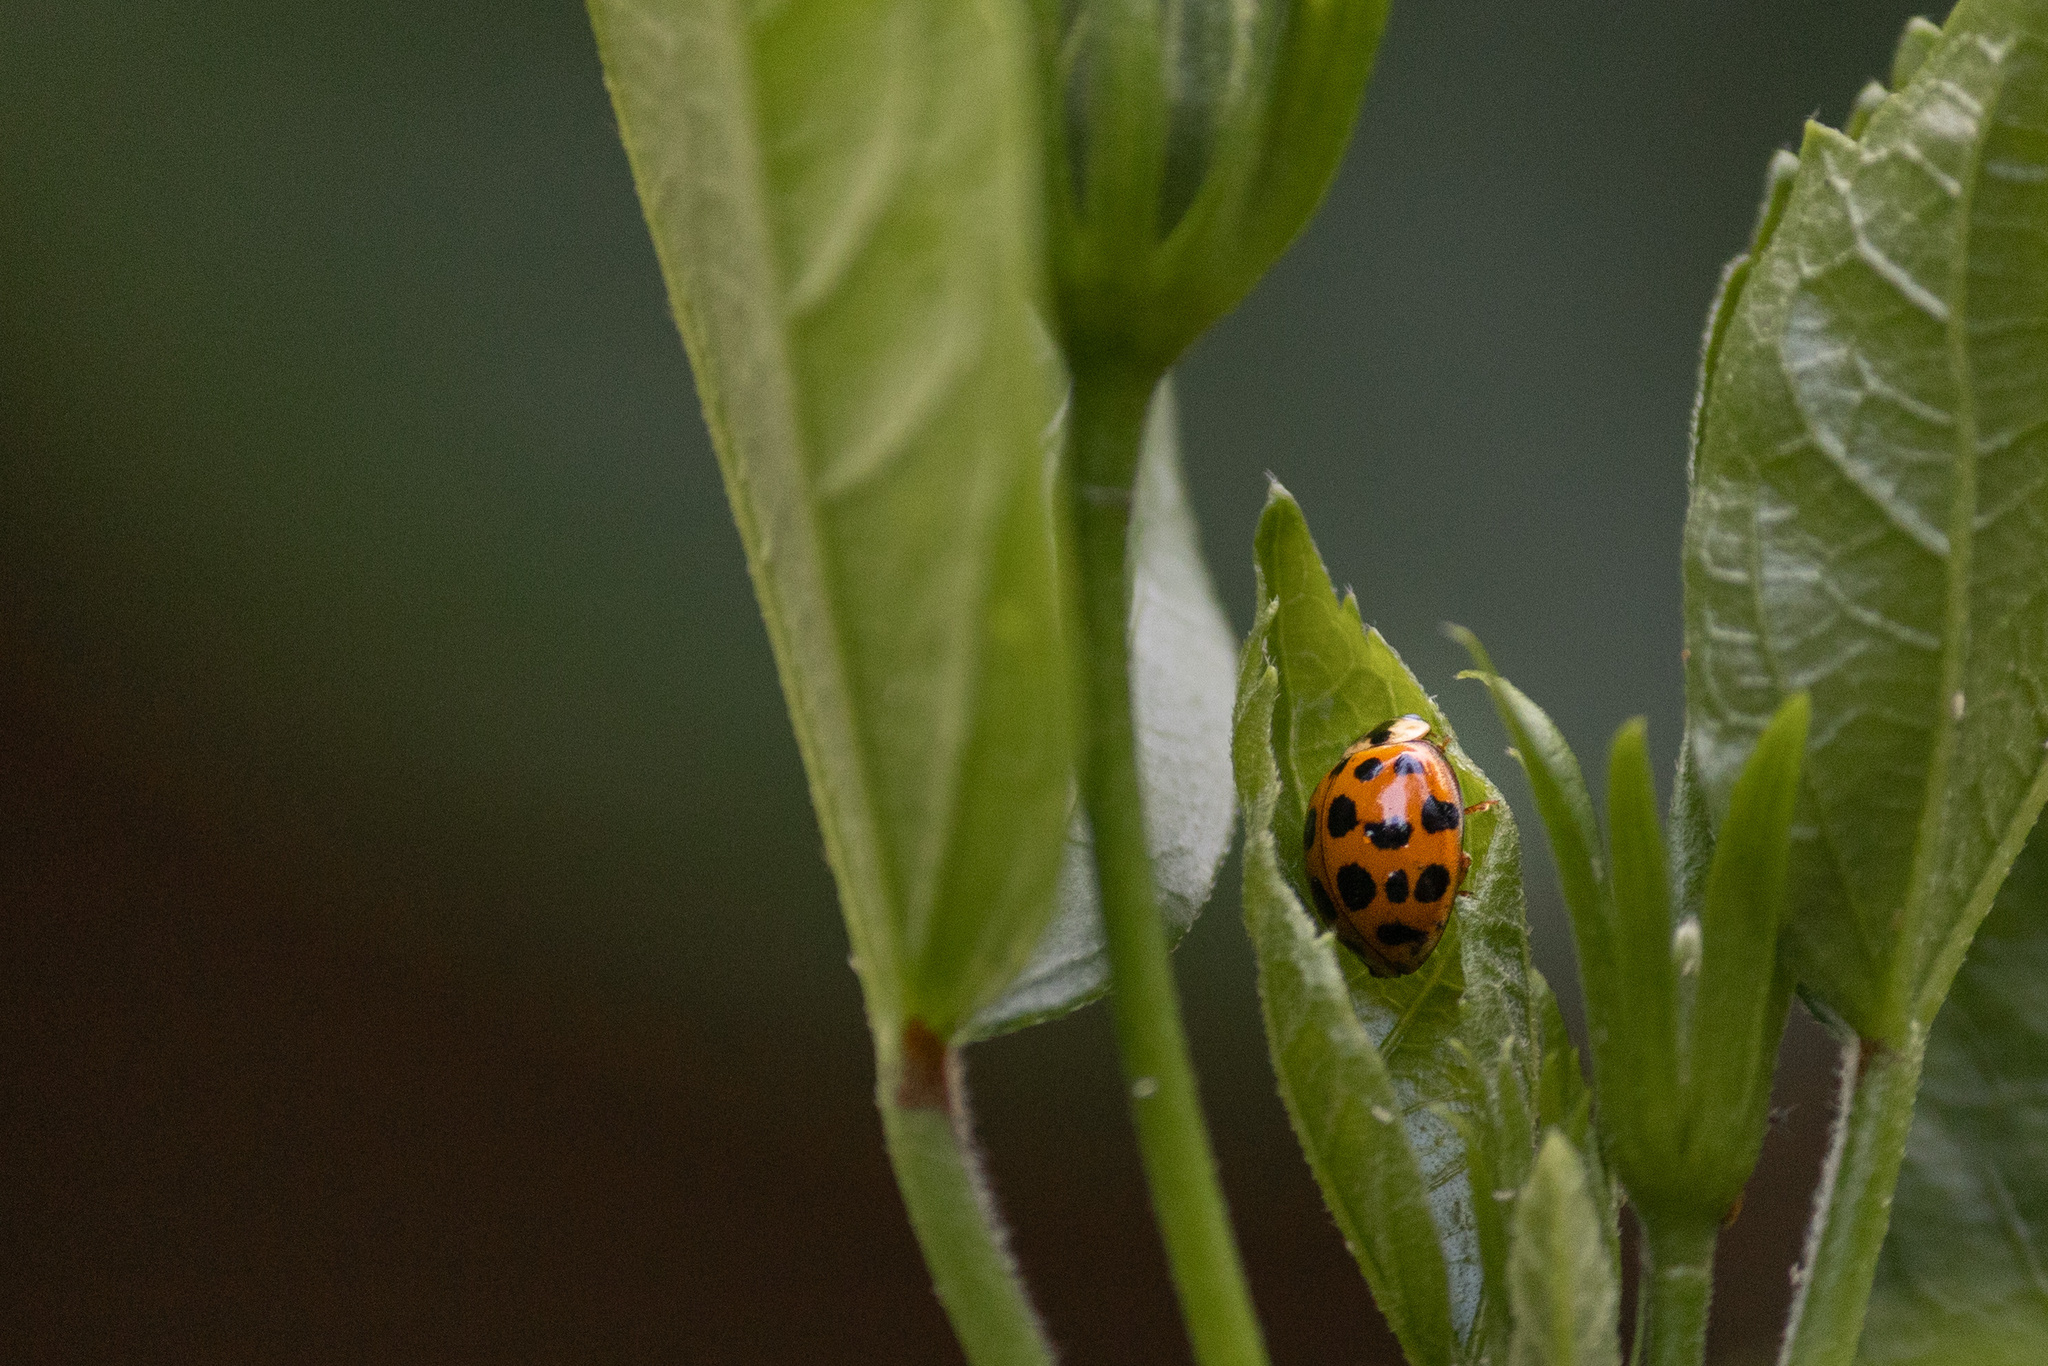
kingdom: Animalia
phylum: Arthropoda
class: Insecta
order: Coleoptera
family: Coccinellidae
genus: Harmonia
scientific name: Harmonia axyridis
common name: Harlequin ladybird
